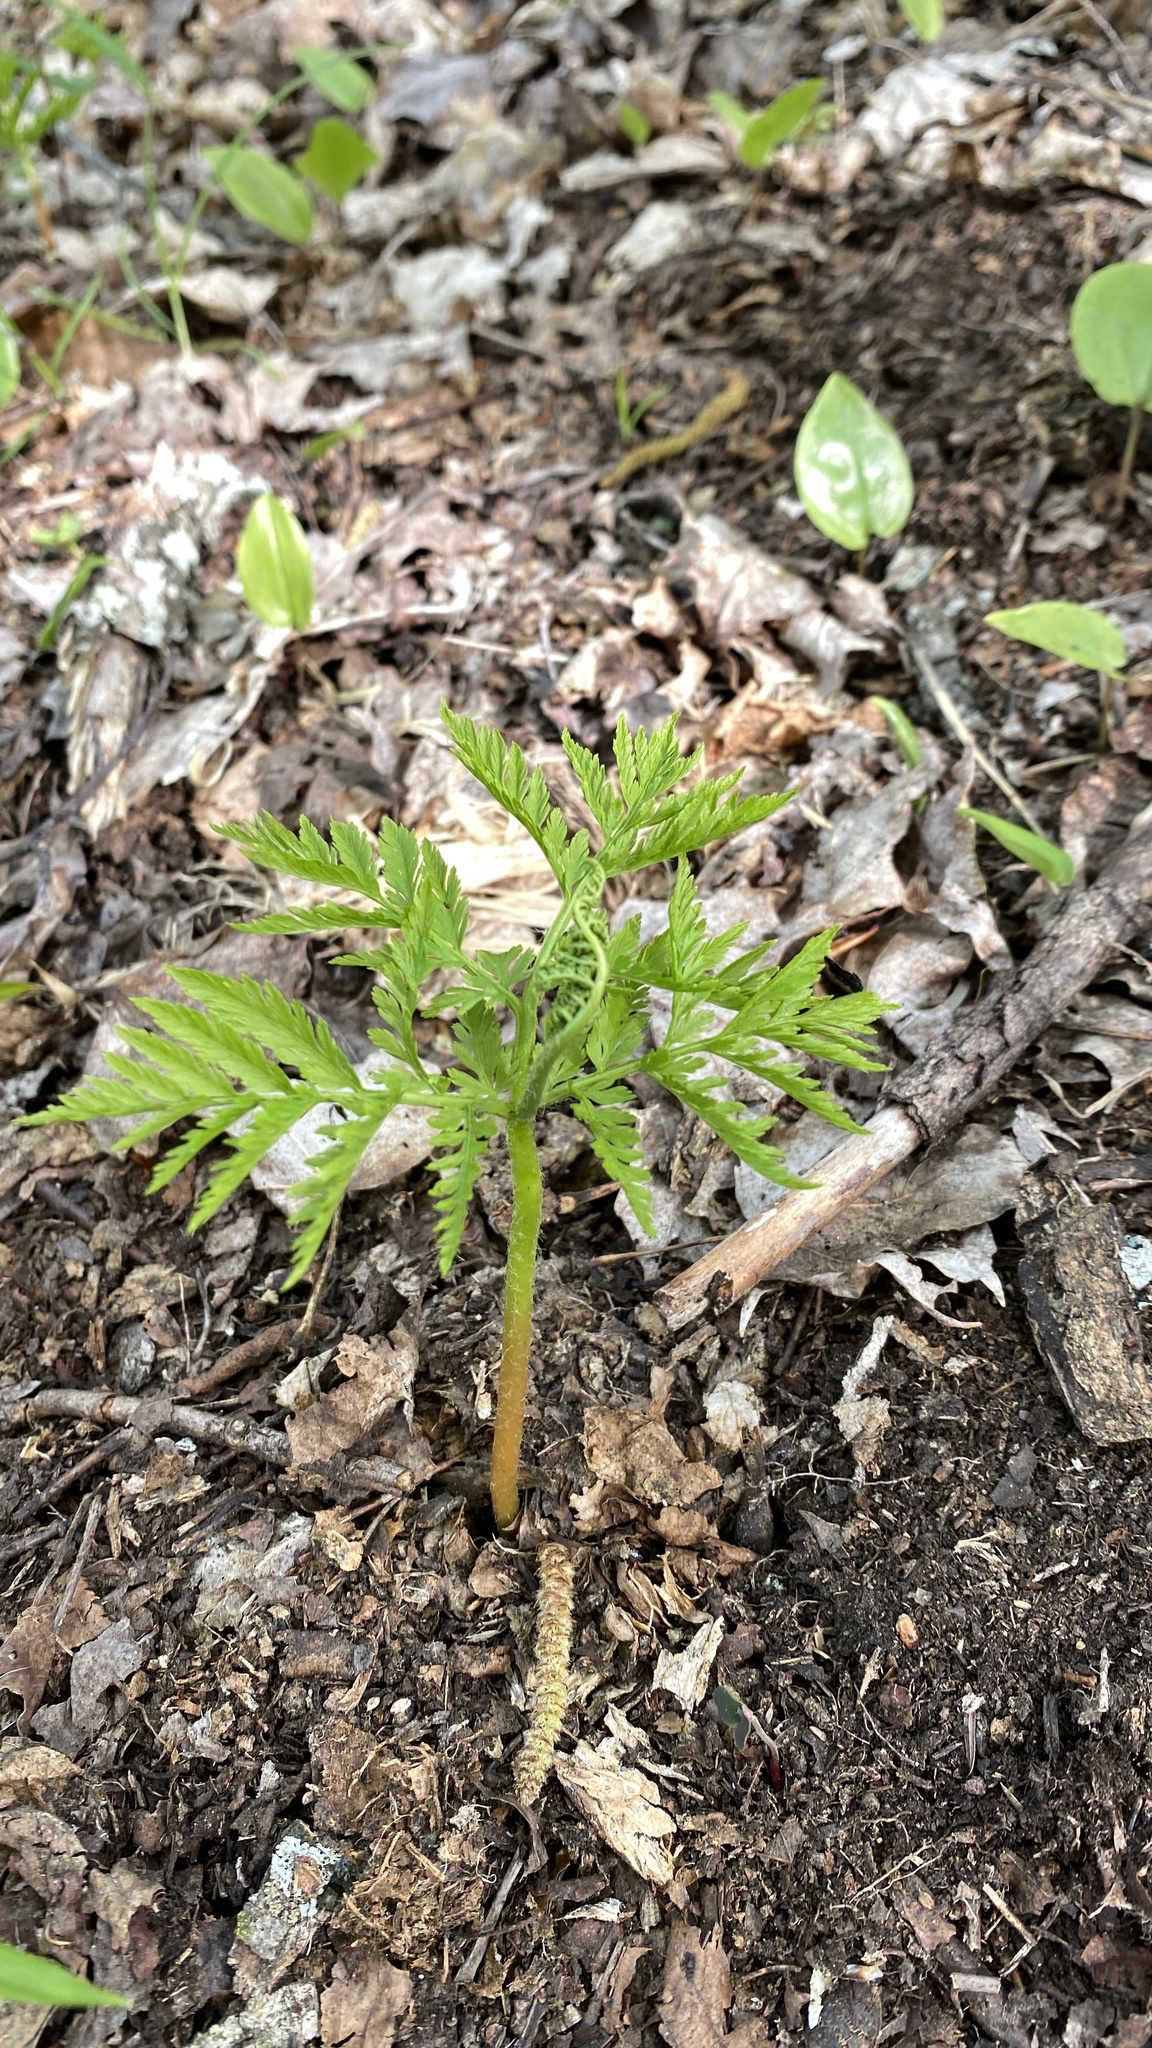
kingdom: Plantae
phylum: Tracheophyta
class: Polypodiopsida
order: Ophioglossales
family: Ophioglossaceae
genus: Botrypus
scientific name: Botrypus virginianus
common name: Common grapefern
